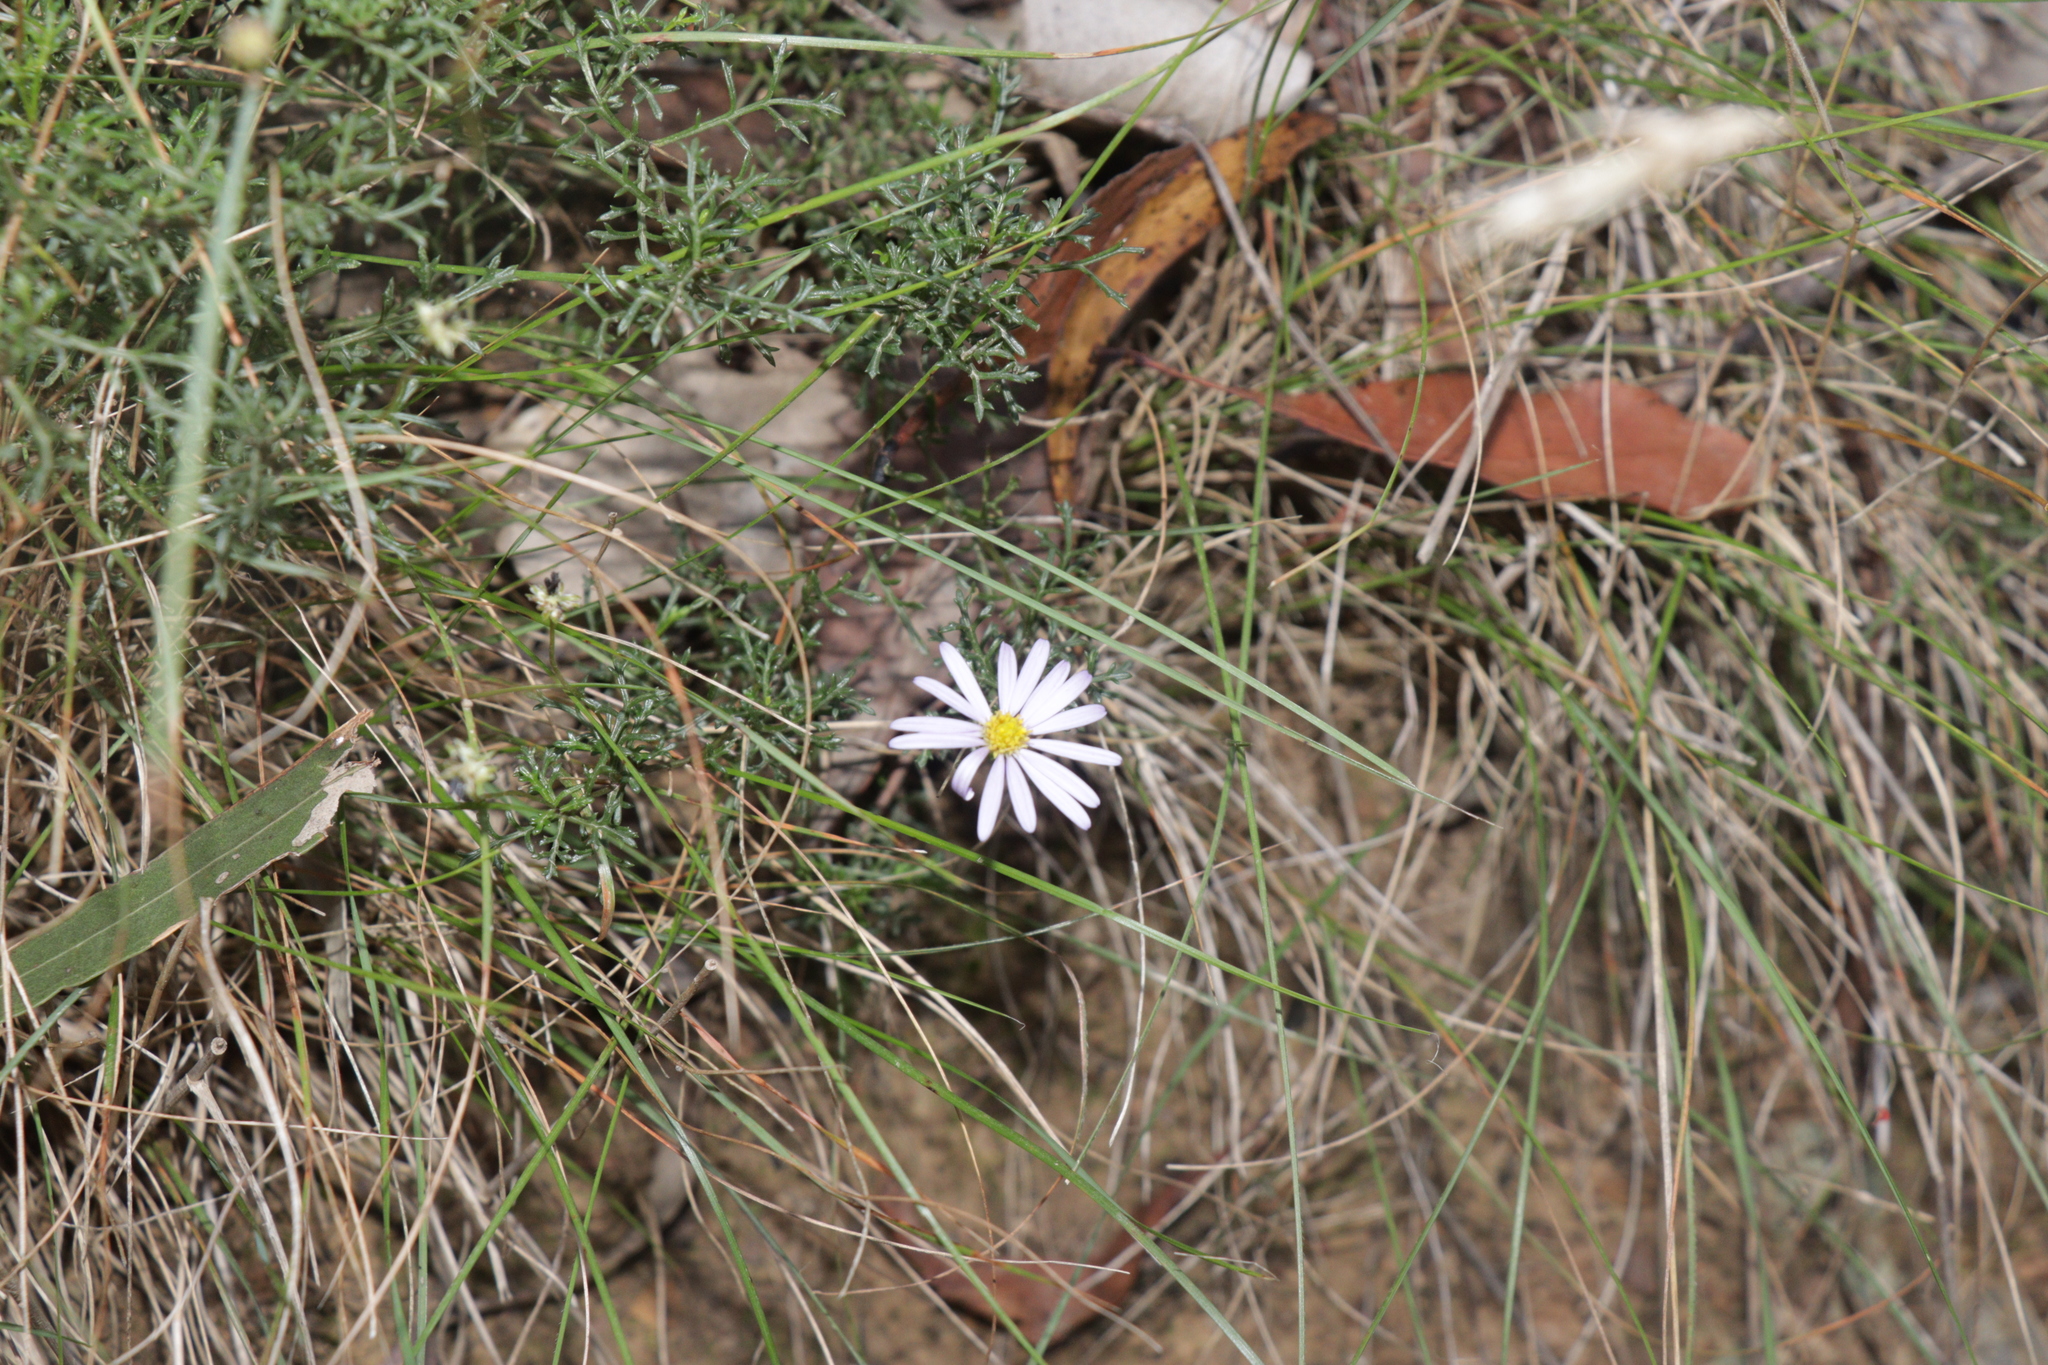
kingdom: Plantae
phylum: Tracheophyta
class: Magnoliopsida
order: Asterales
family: Asteraceae
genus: Brachyscome
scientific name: Brachyscome multifida
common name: Cut-leaf daisy
